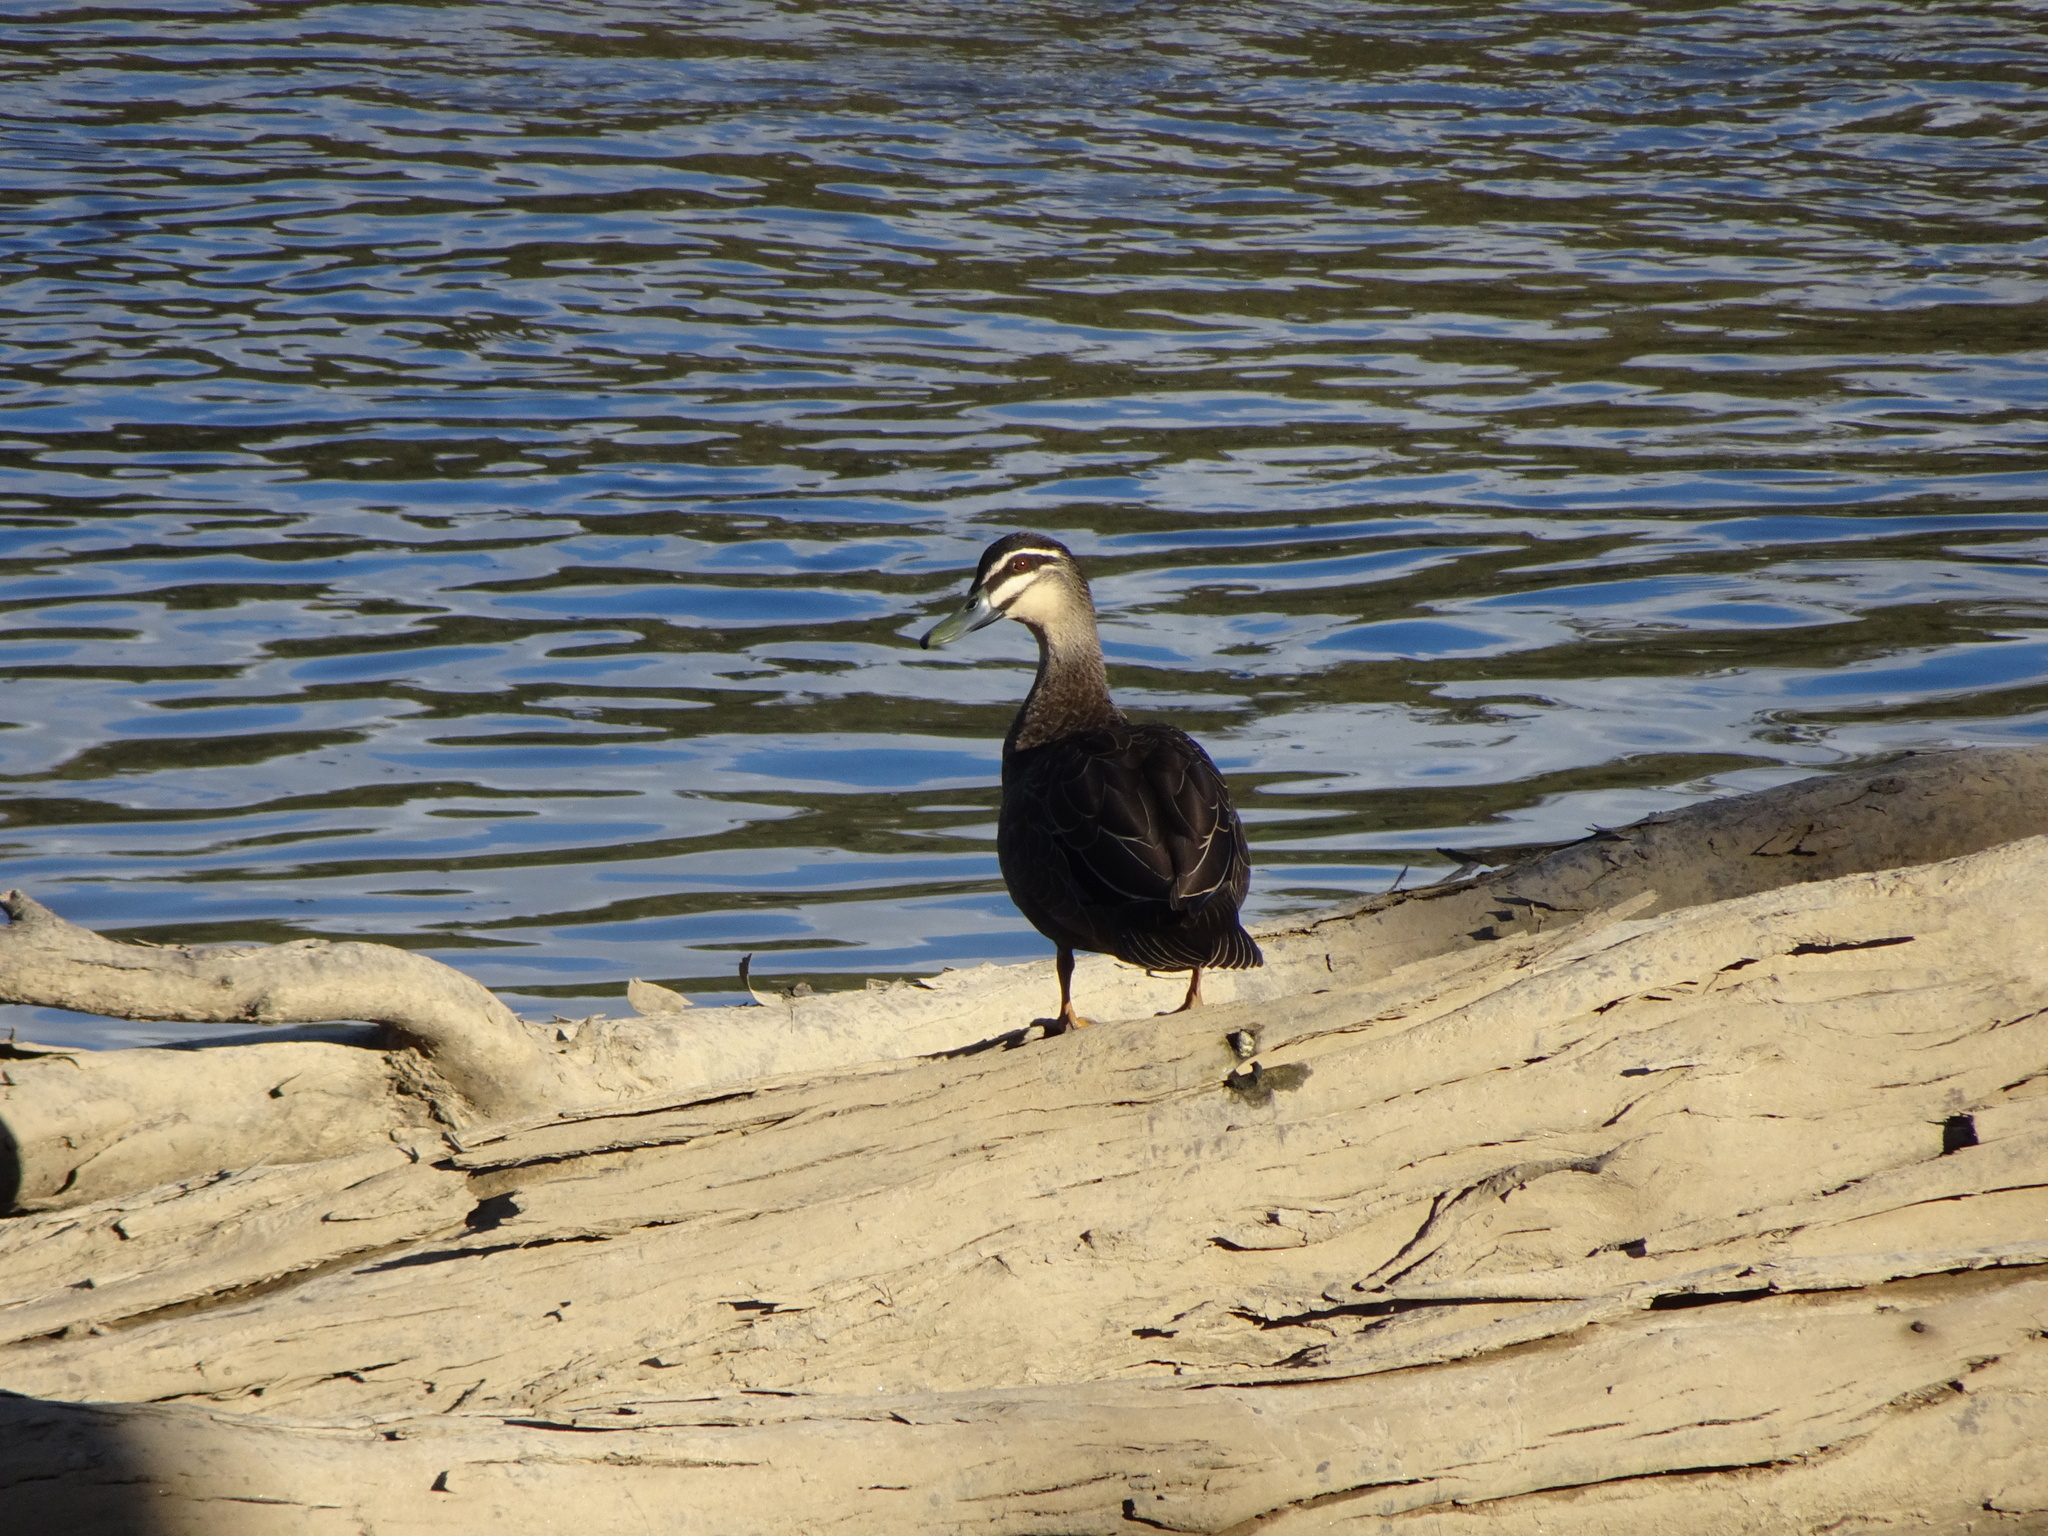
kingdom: Animalia
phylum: Chordata
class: Aves
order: Anseriformes
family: Anatidae
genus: Anas
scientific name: Anas superciliosa
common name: Pacific black duck
